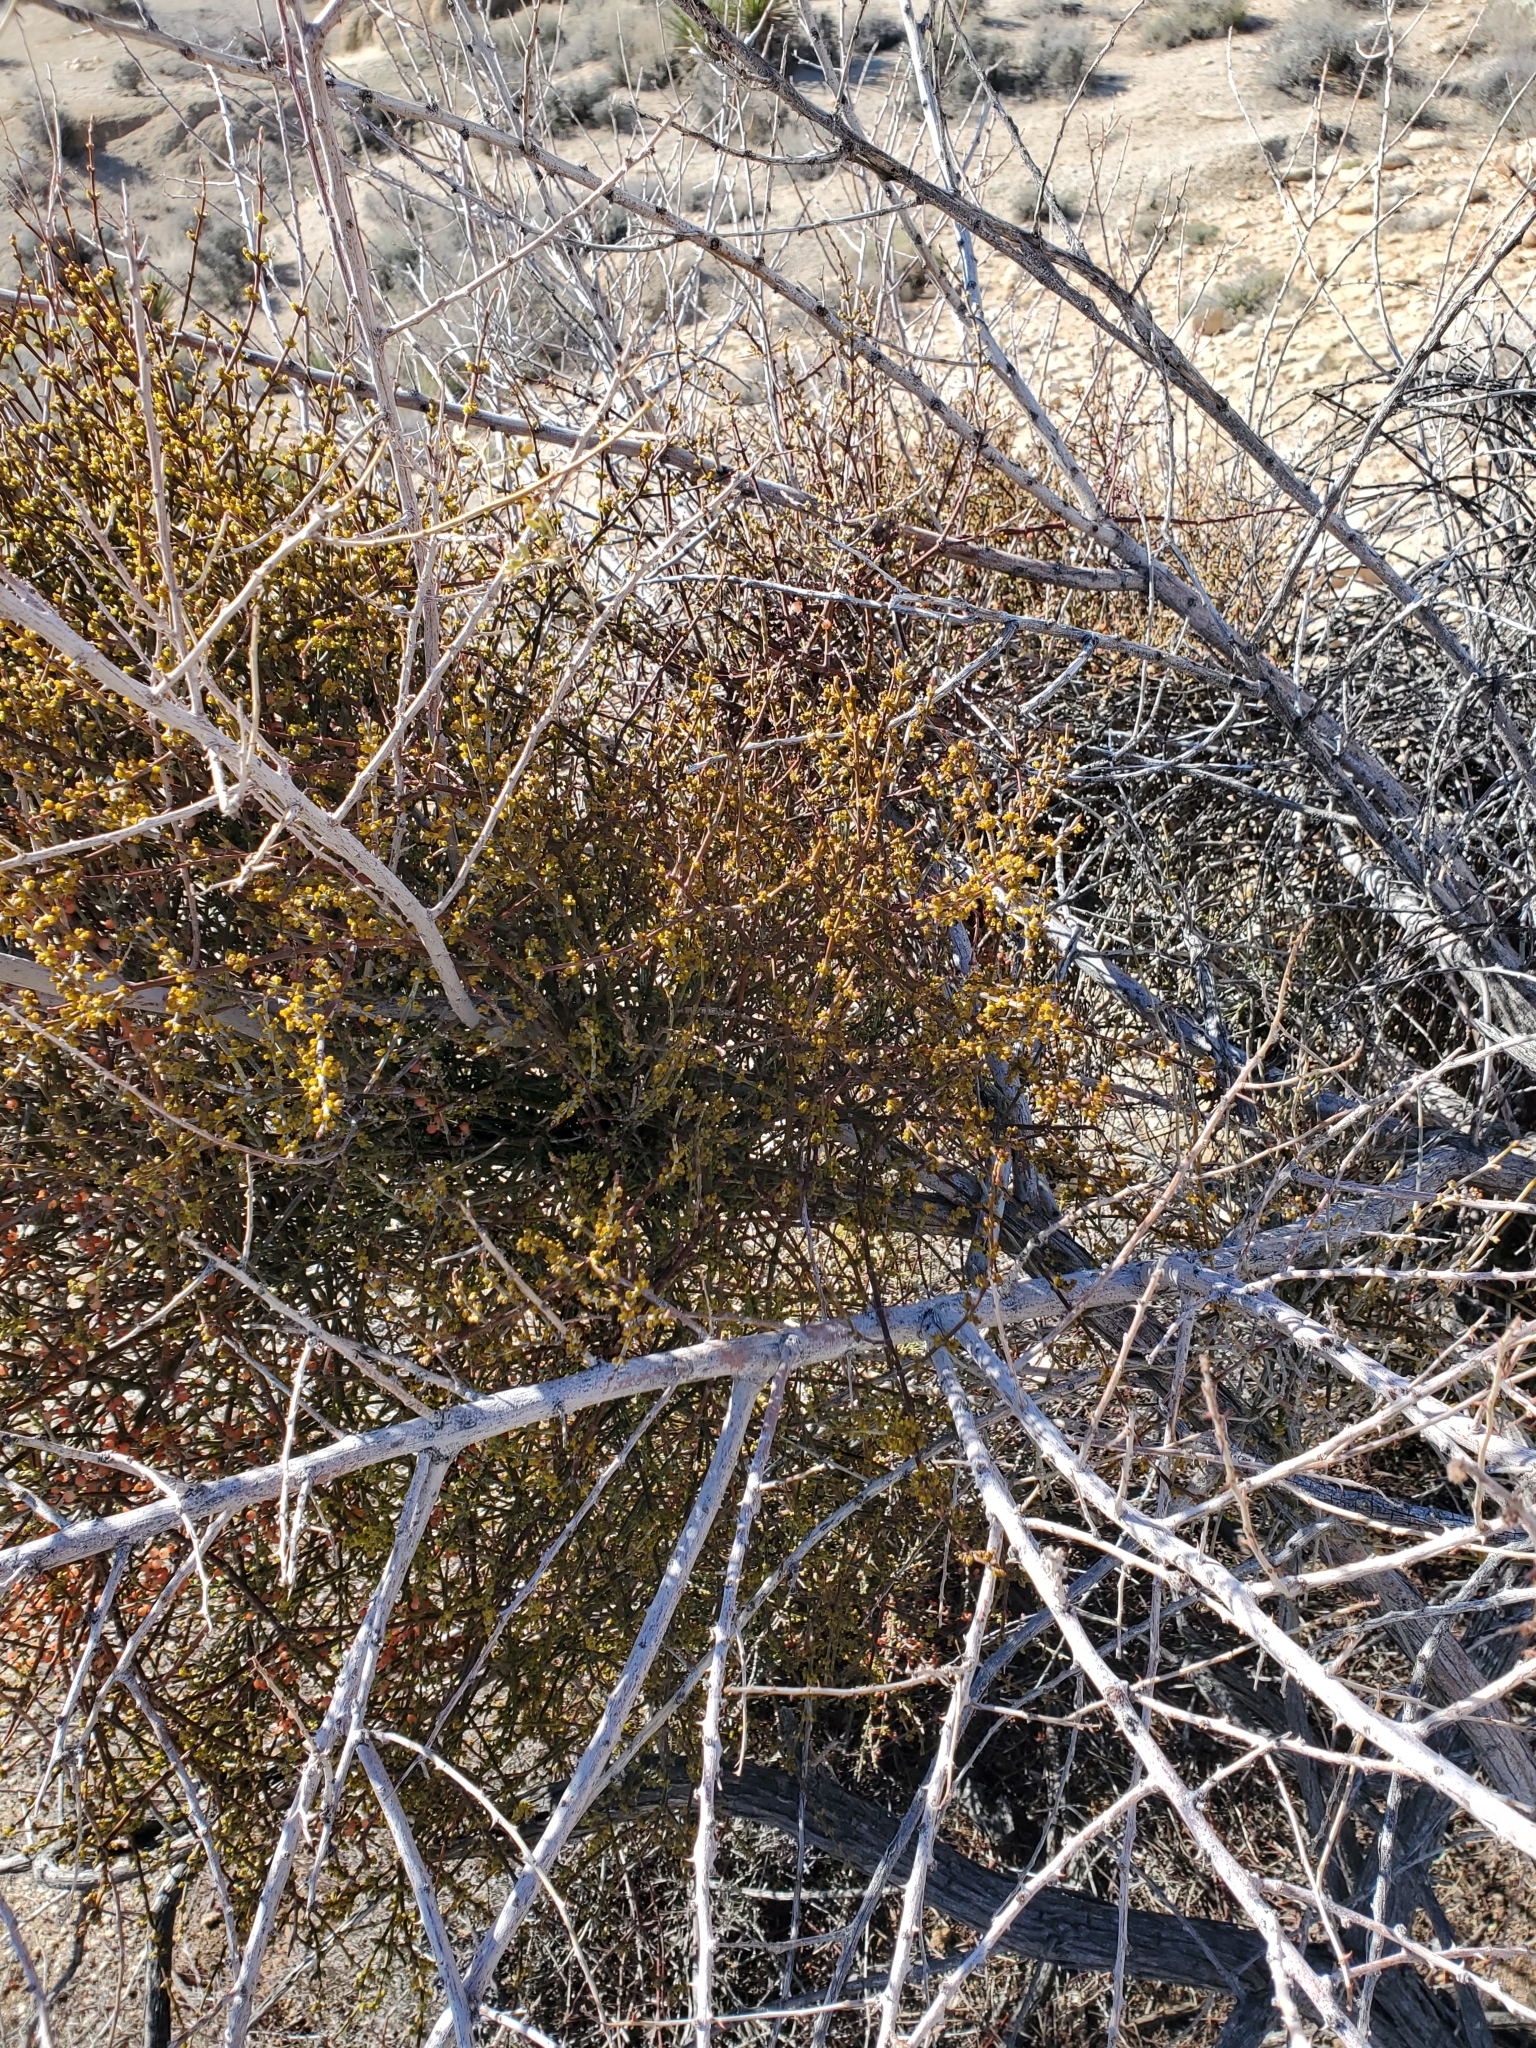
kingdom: Plantae
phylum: Tracheophyta
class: Magnoliopsida
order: Santalales
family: Viscaceae
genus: Phoradendron
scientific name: Phoradendron californicum
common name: Acacia mistletoe
